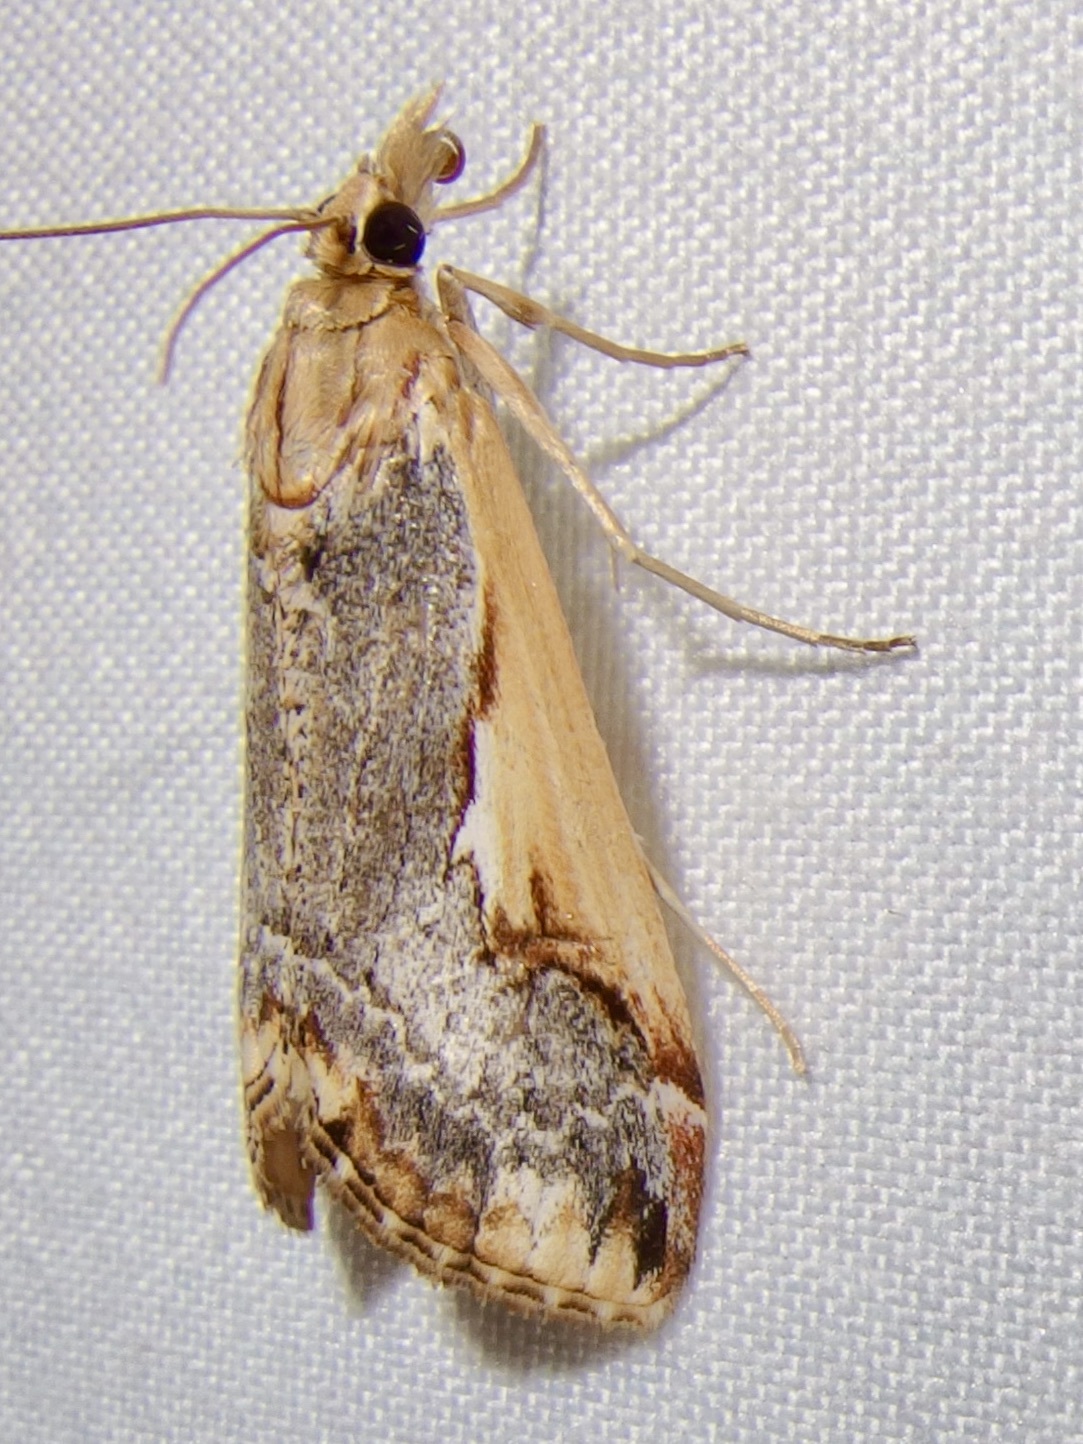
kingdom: Animalia
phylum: Arthropoda
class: Insecta
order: Lepidoptera
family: Crambidae
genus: Loxostege
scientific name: Loxostege albiceralis
